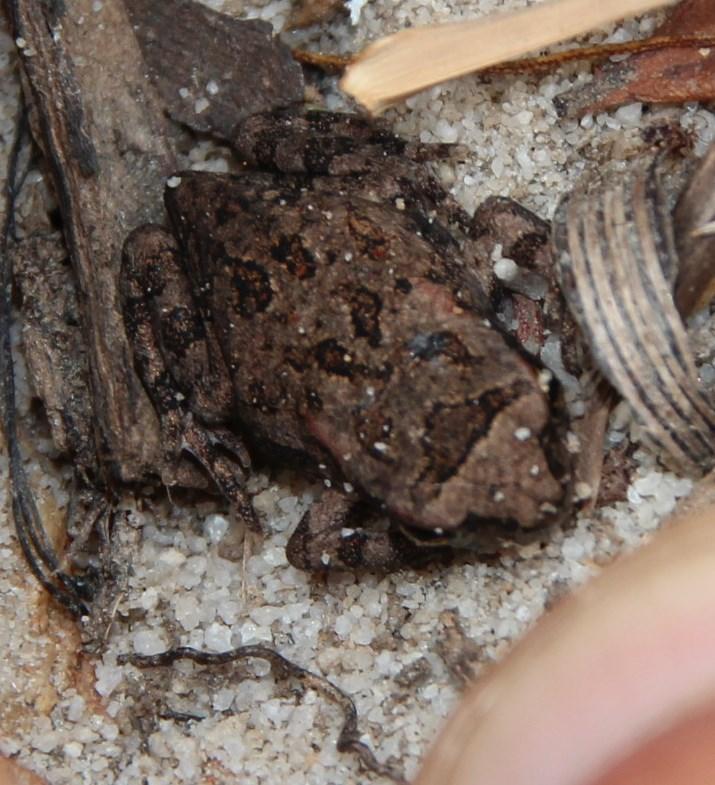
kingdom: Animalia
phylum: Chordata
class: Amphibia
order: Anura
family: Bufonidae
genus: Sclerophrys
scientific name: Sclerophrys capensis
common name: Ranger’s toad
